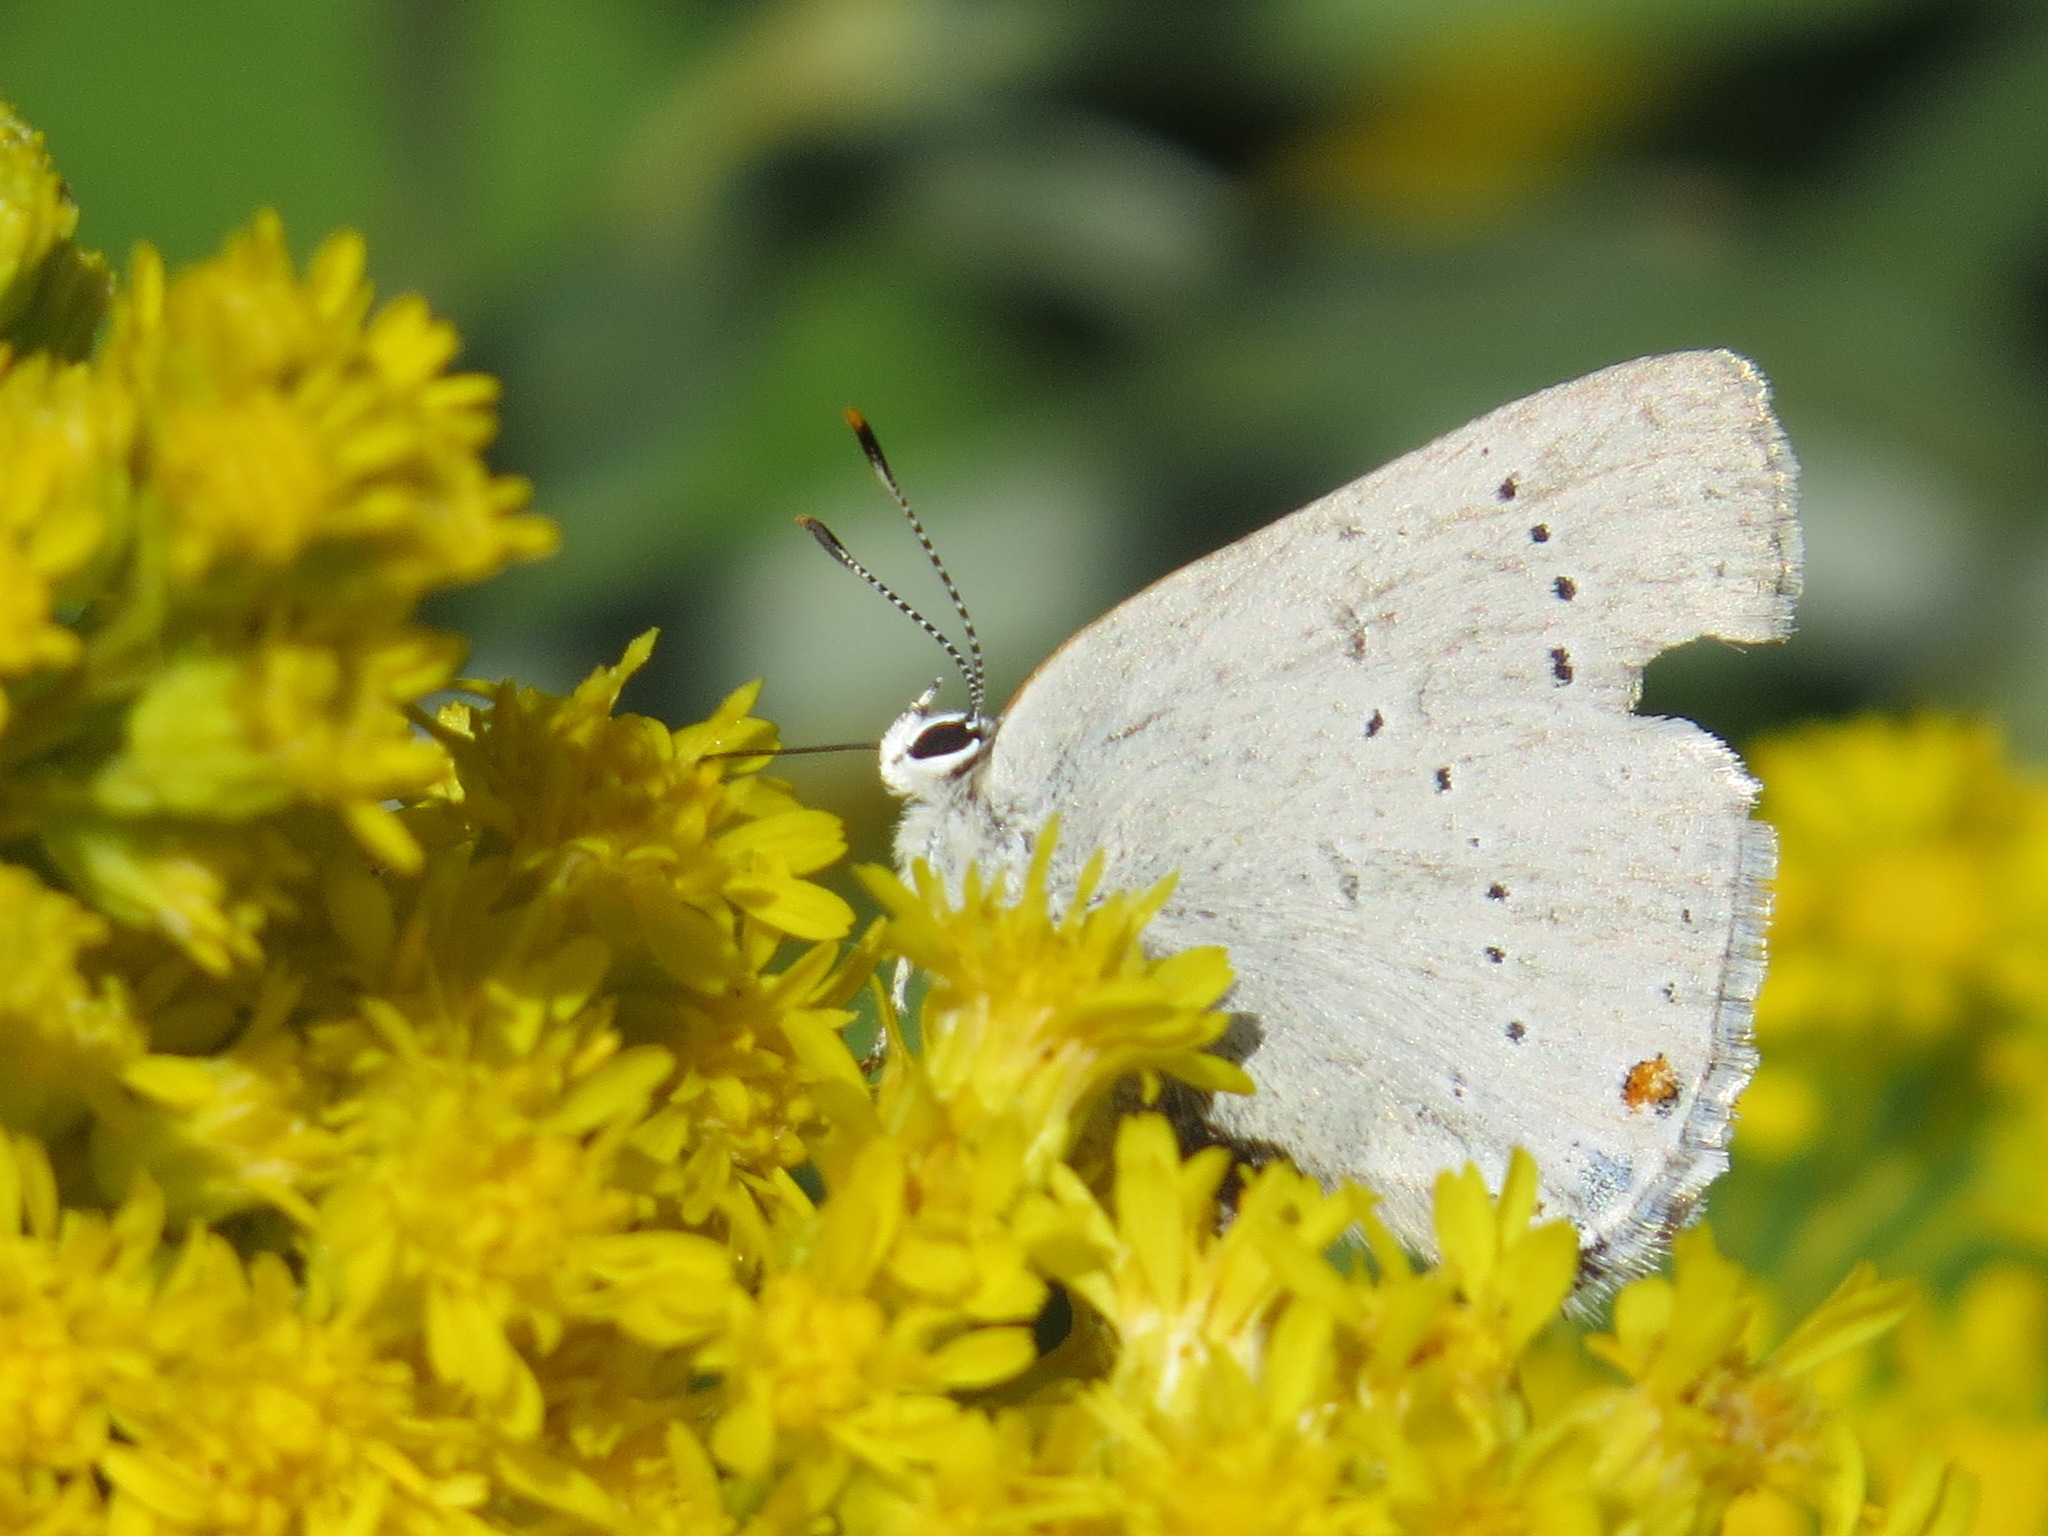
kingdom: Animalia
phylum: Arthropoda
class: Insecta
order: Lepidoptera
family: Lycaenidae
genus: Strymon
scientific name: Strymon sylvinus
